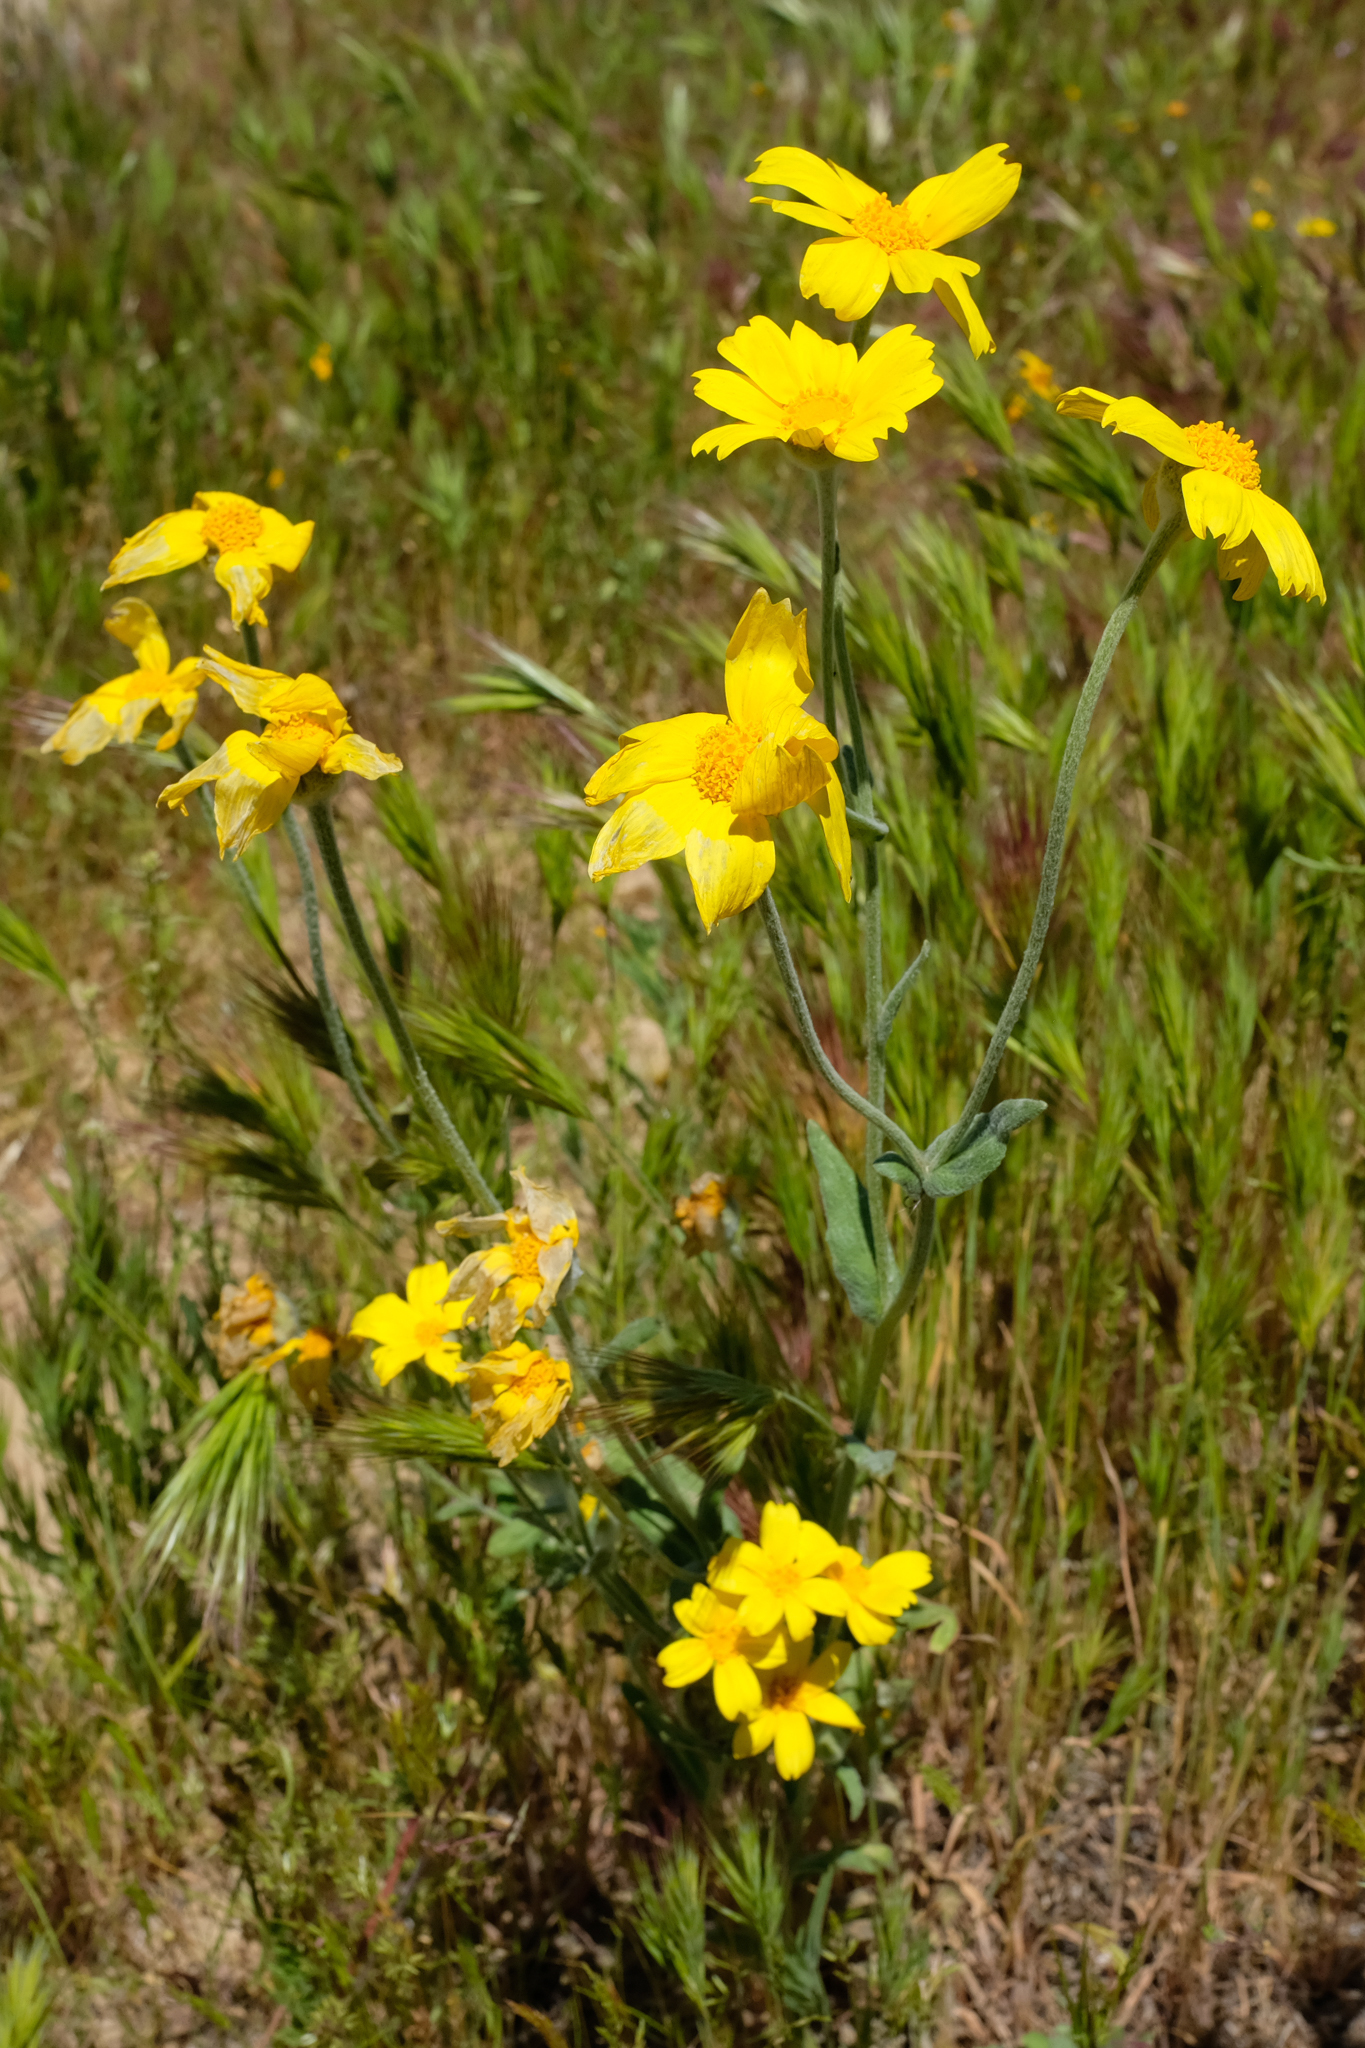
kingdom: Plantae
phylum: Tracheophyta
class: Magnoliopsida
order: Asterales
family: Asteraceae
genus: Monolopia
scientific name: Monolopia lanceolata
